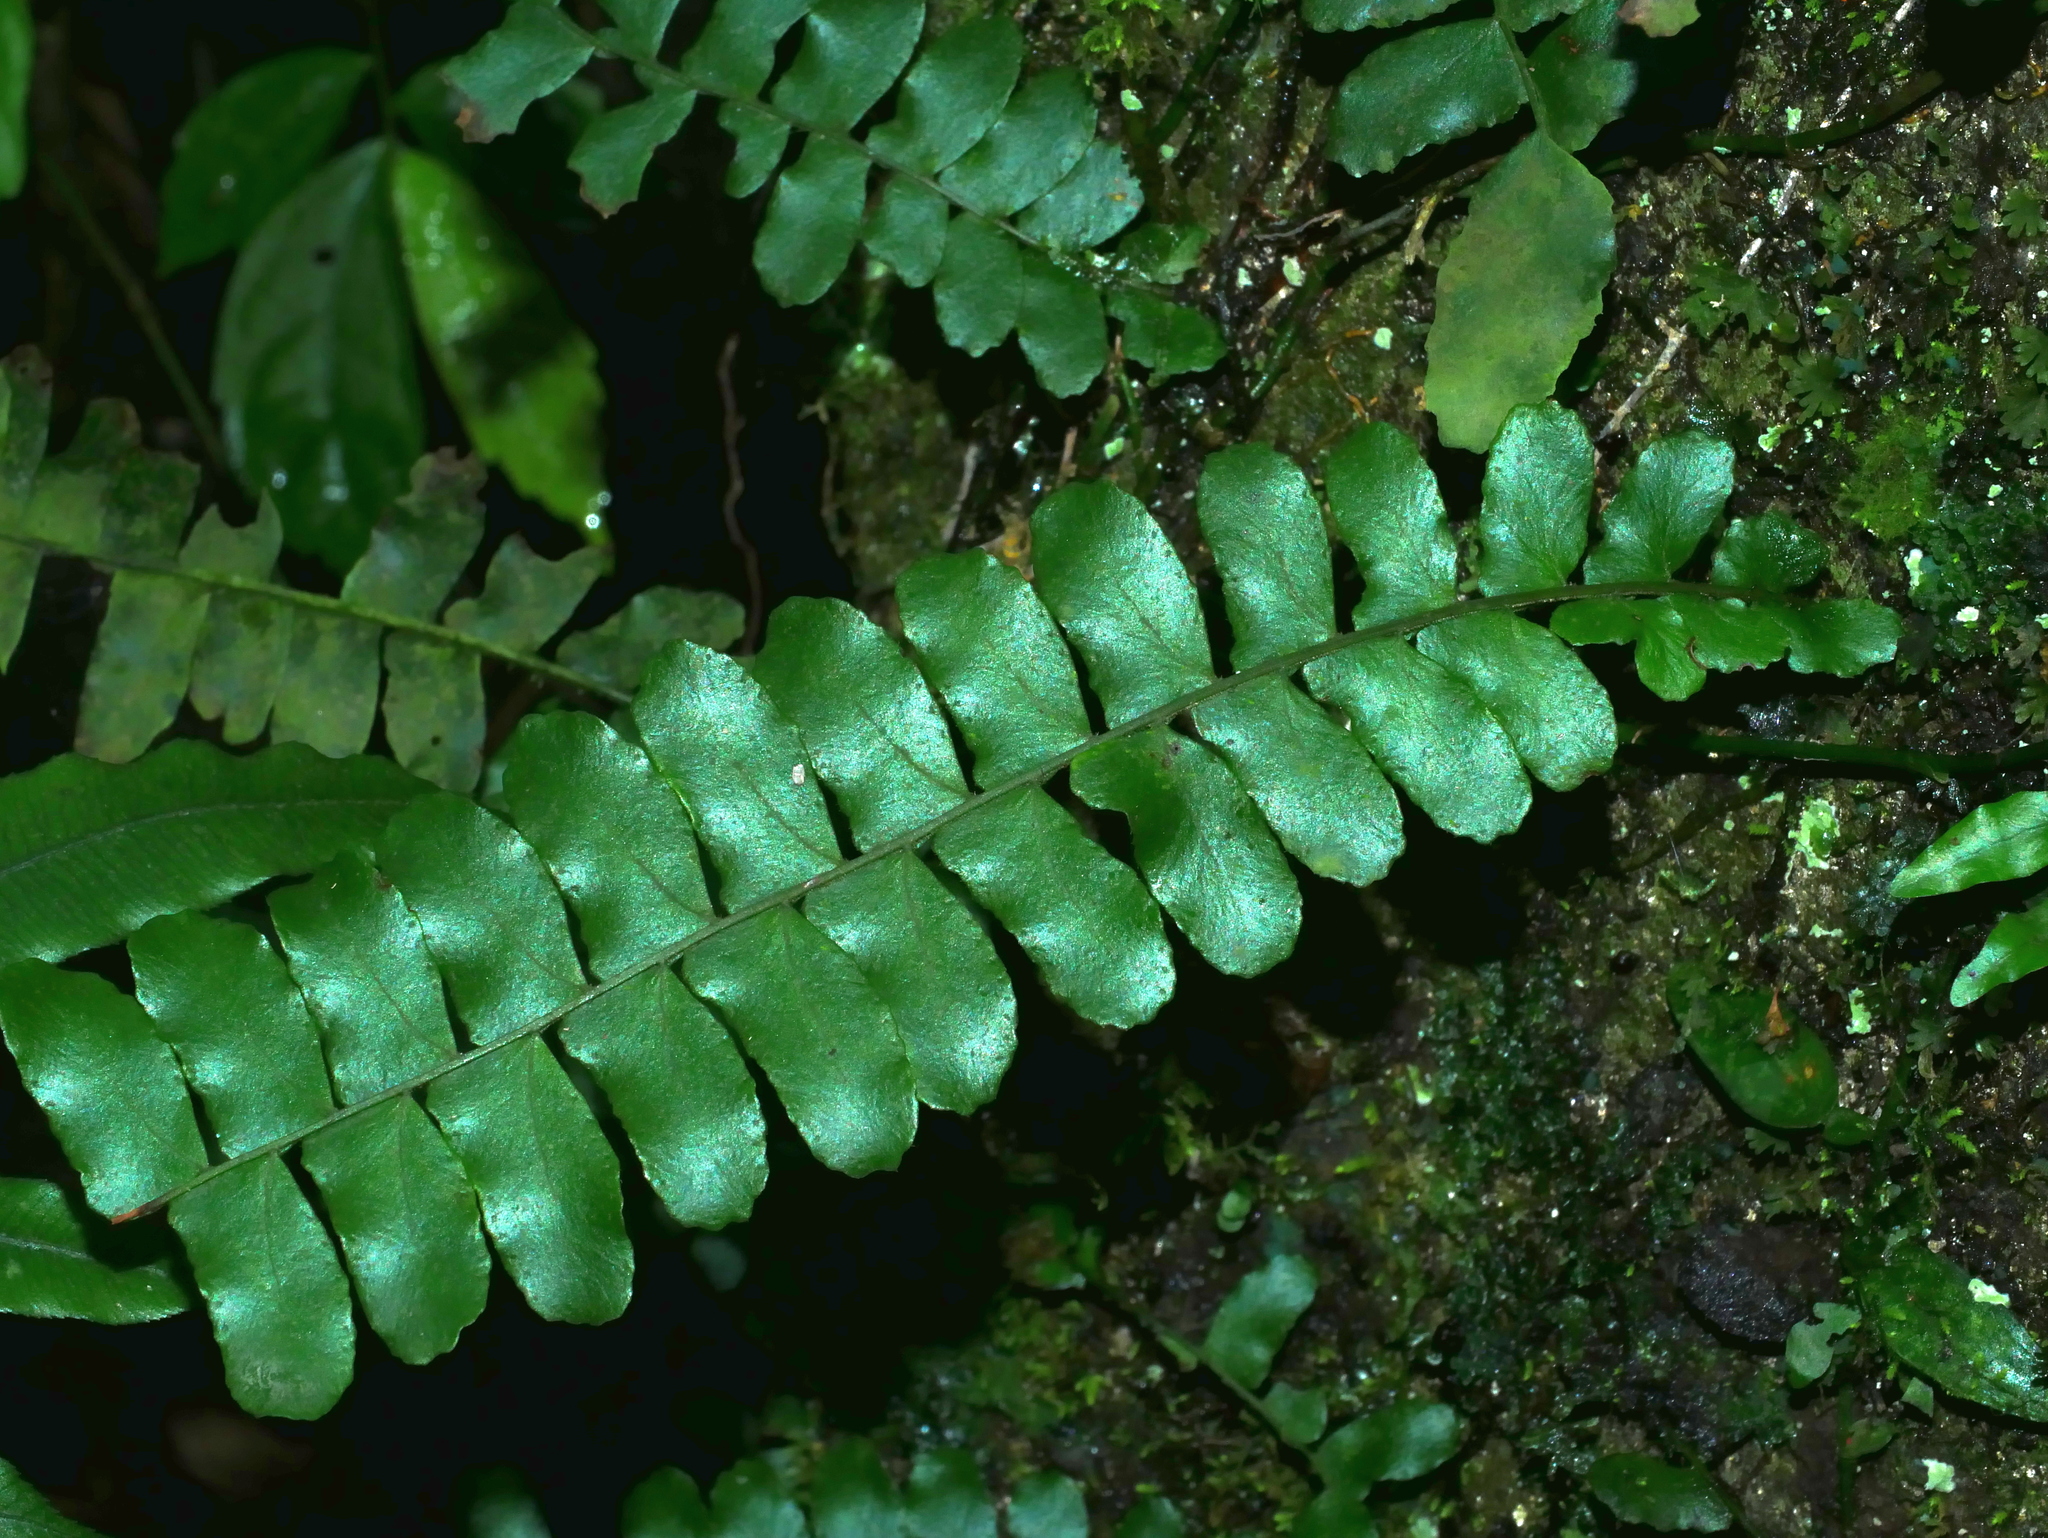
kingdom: Plantae
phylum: Tracheophyta
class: Polypodiopsida
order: Polypodiales
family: Tectariaceae
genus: Arthropteris
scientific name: Arthropteris palisotii
